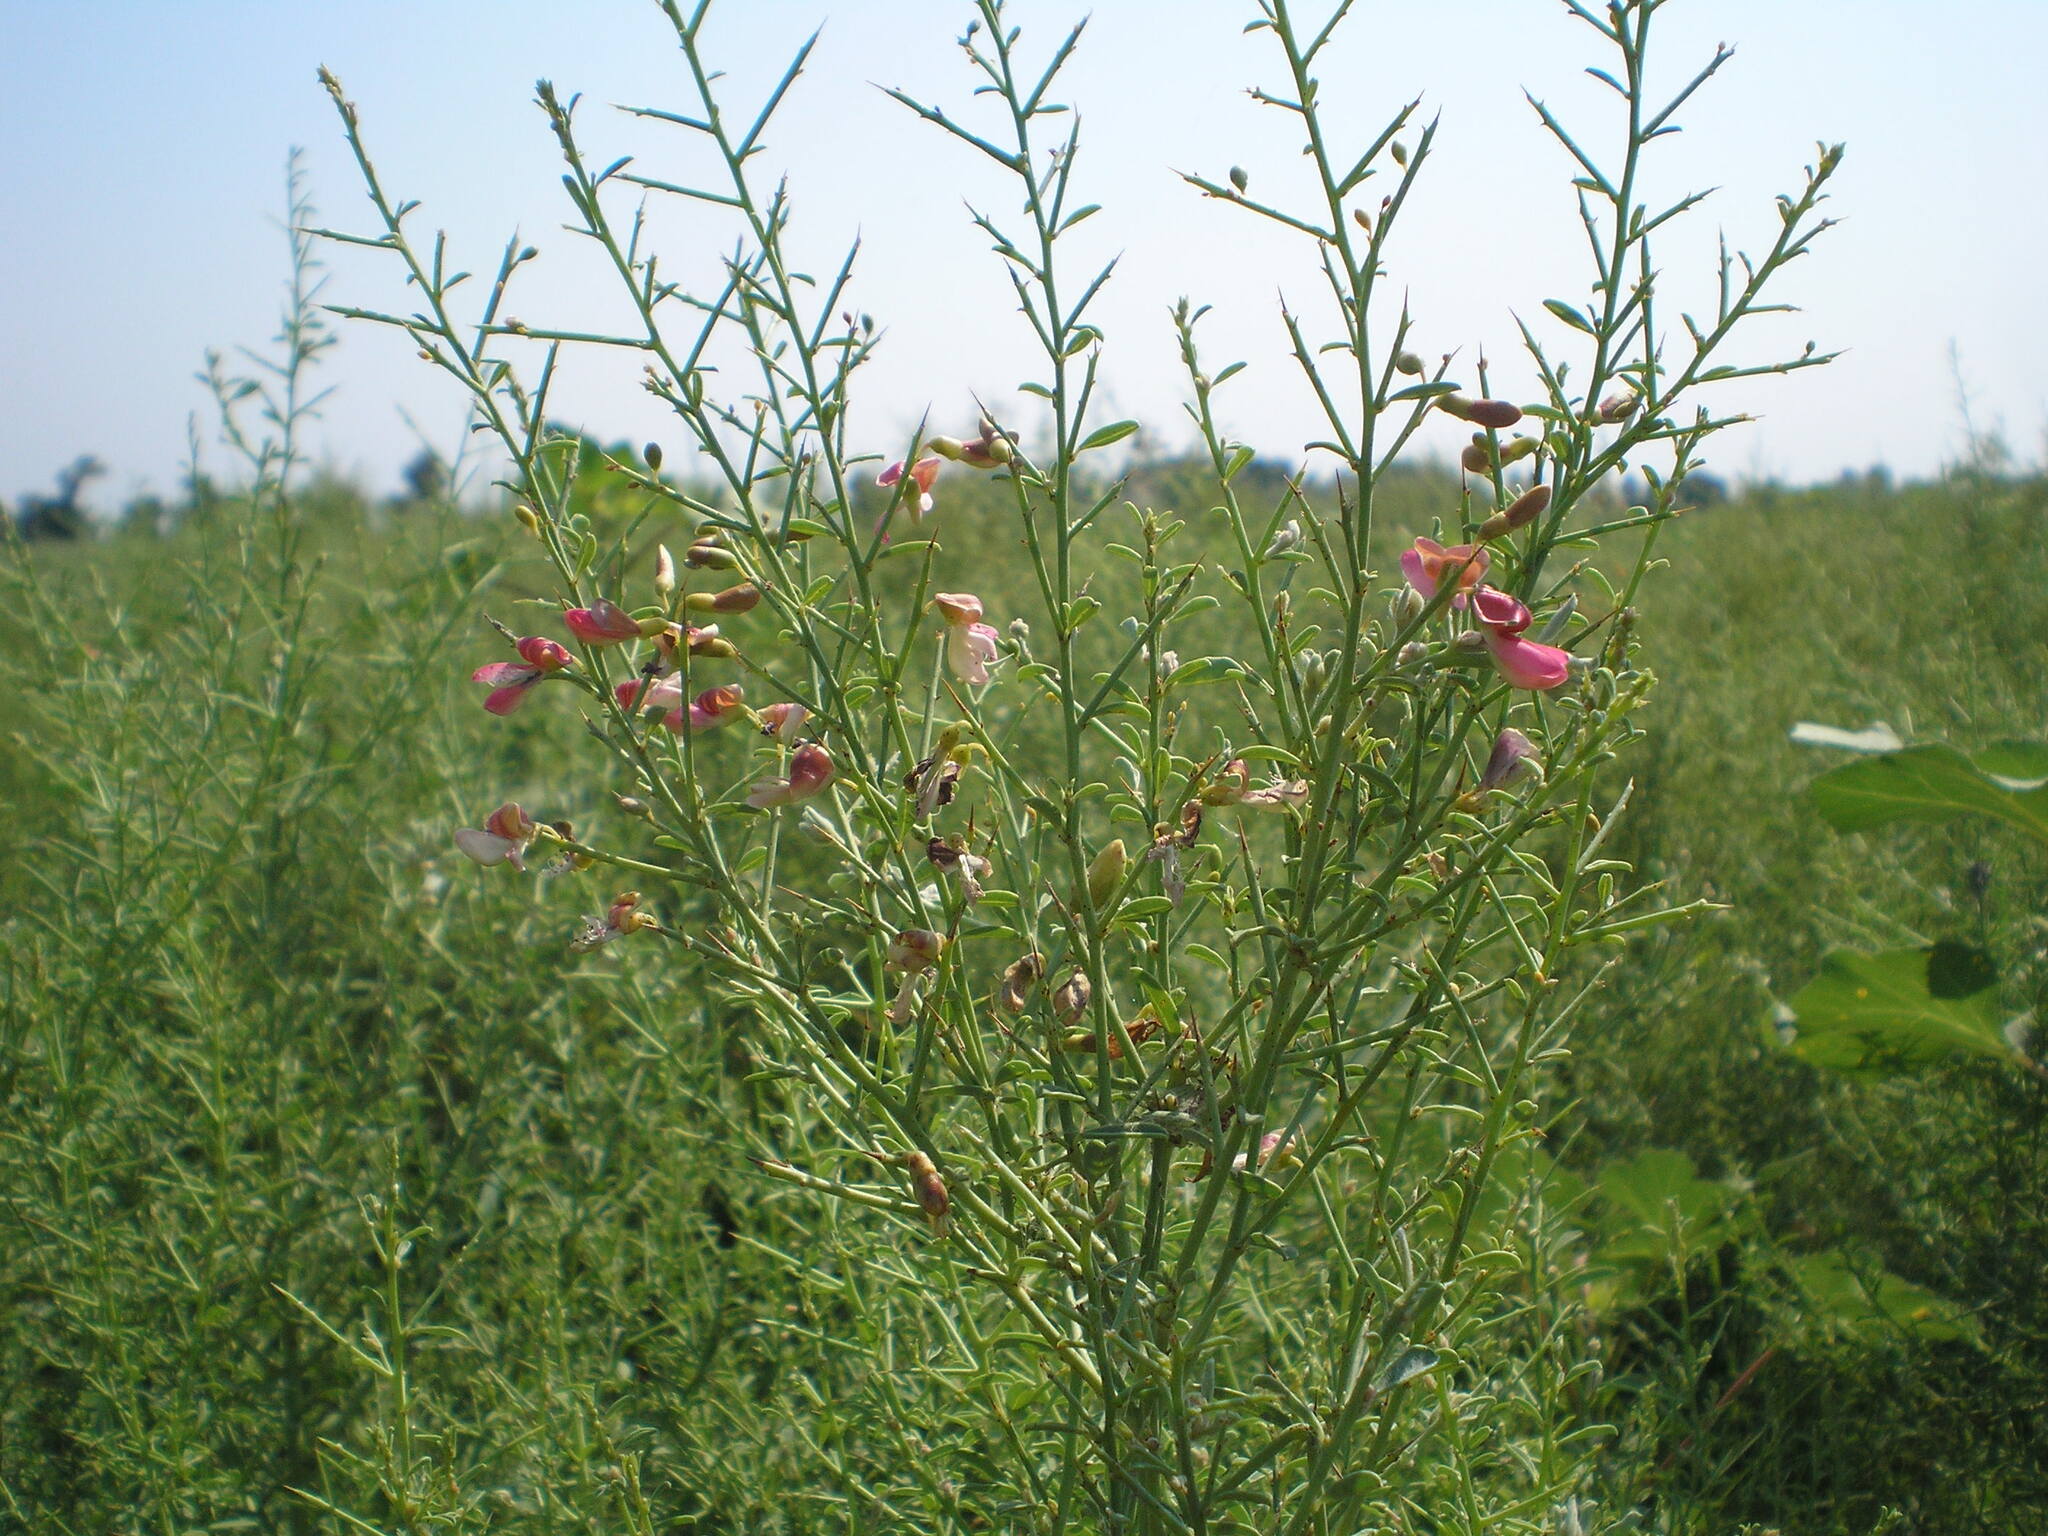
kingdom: Plantae
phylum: Tracheophyta
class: Magnoliopsida
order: Fabales
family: Fabaceae
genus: Alhagi
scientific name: Alhagi pseudalhagi
